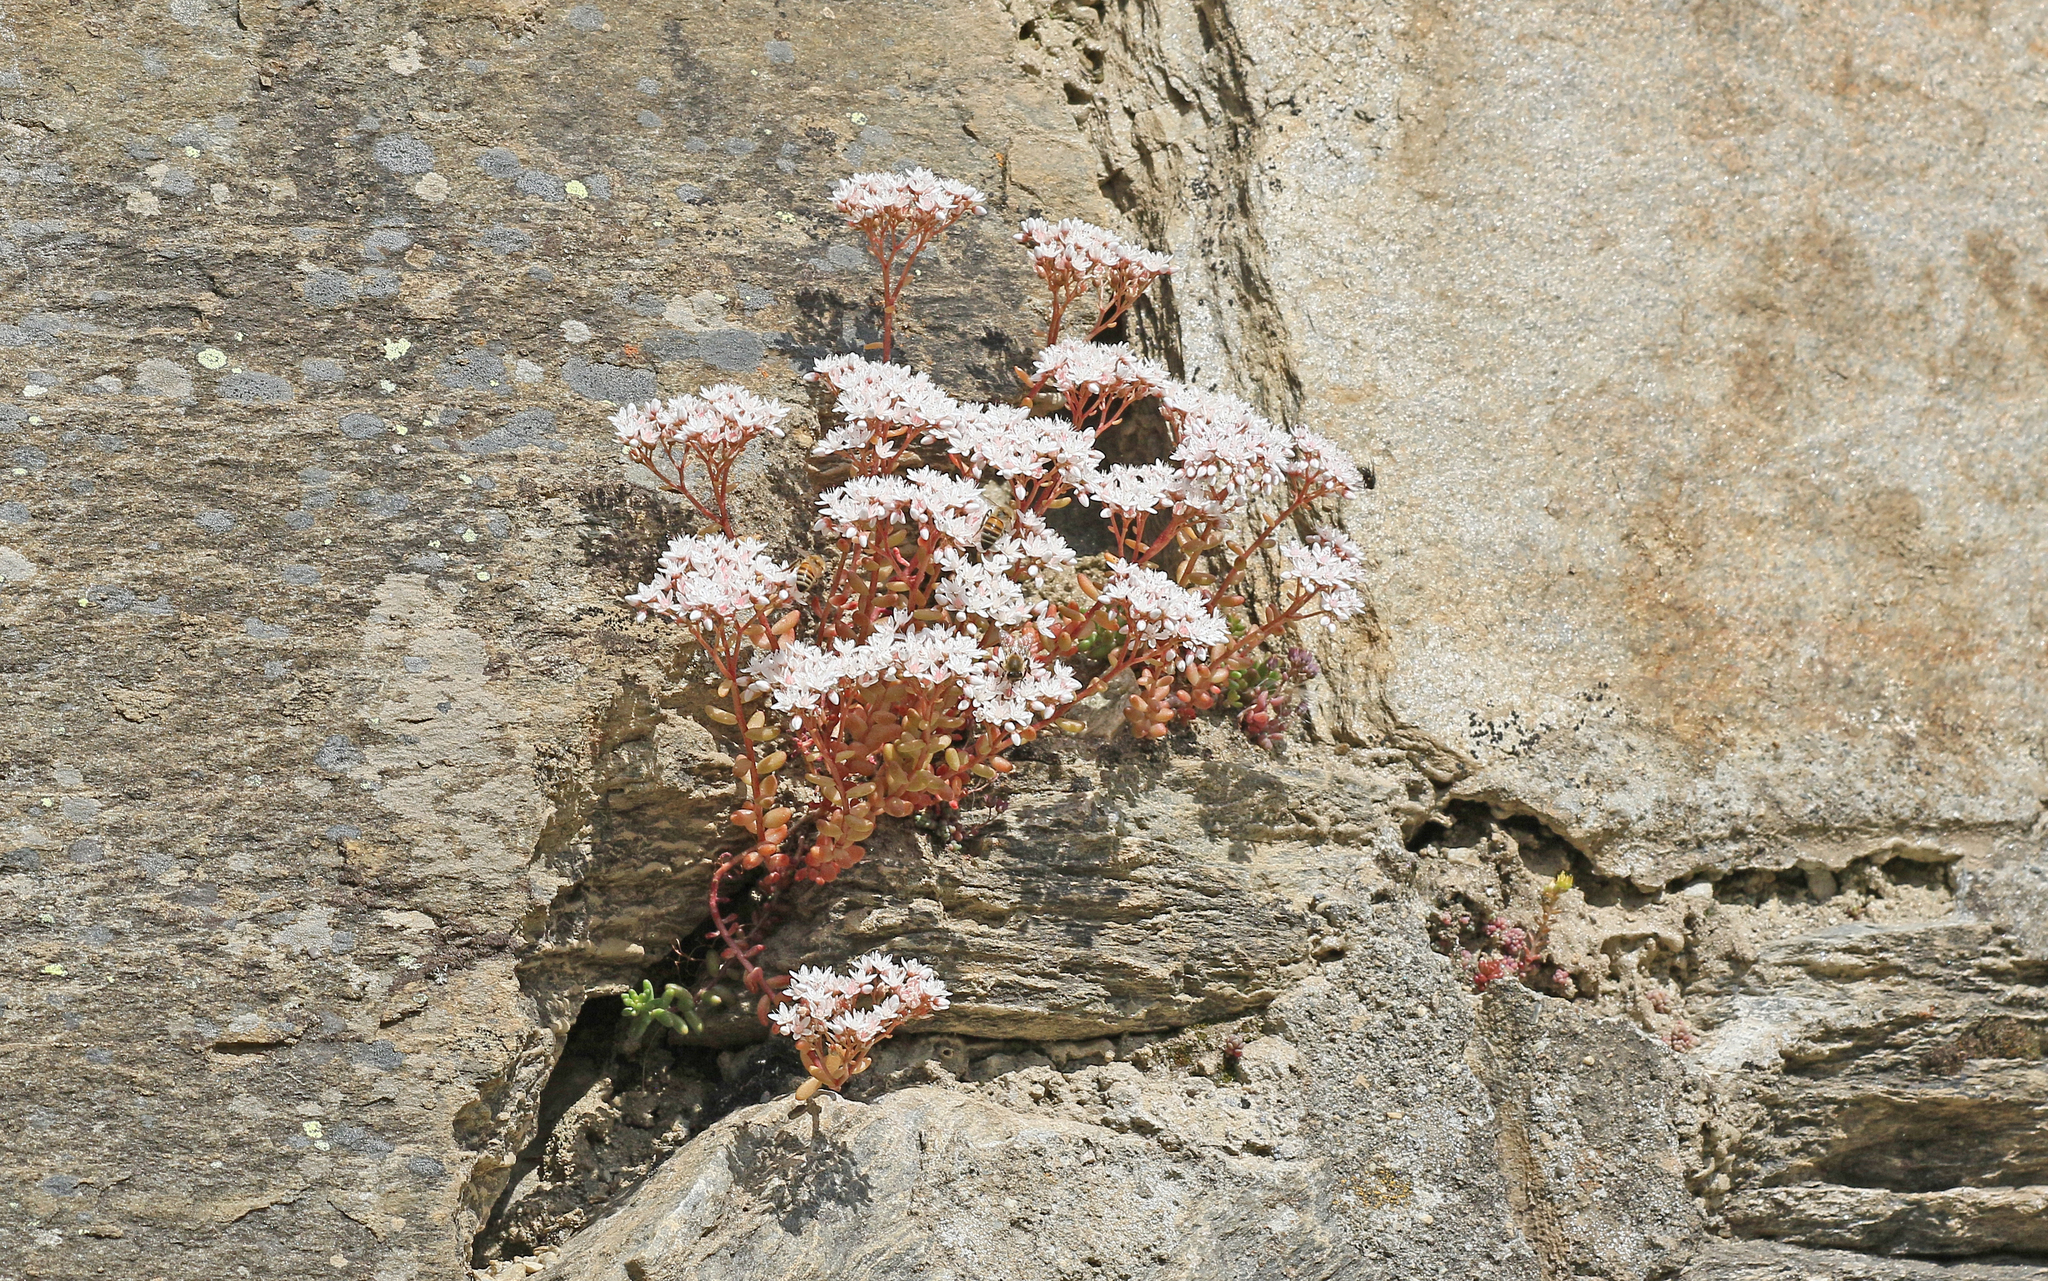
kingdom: Plantae
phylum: Tracheophyta
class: Magnoliopsida
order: Saxifragales
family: Crassulaceae
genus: Sedum
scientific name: Sedum album
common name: White stonecrop
